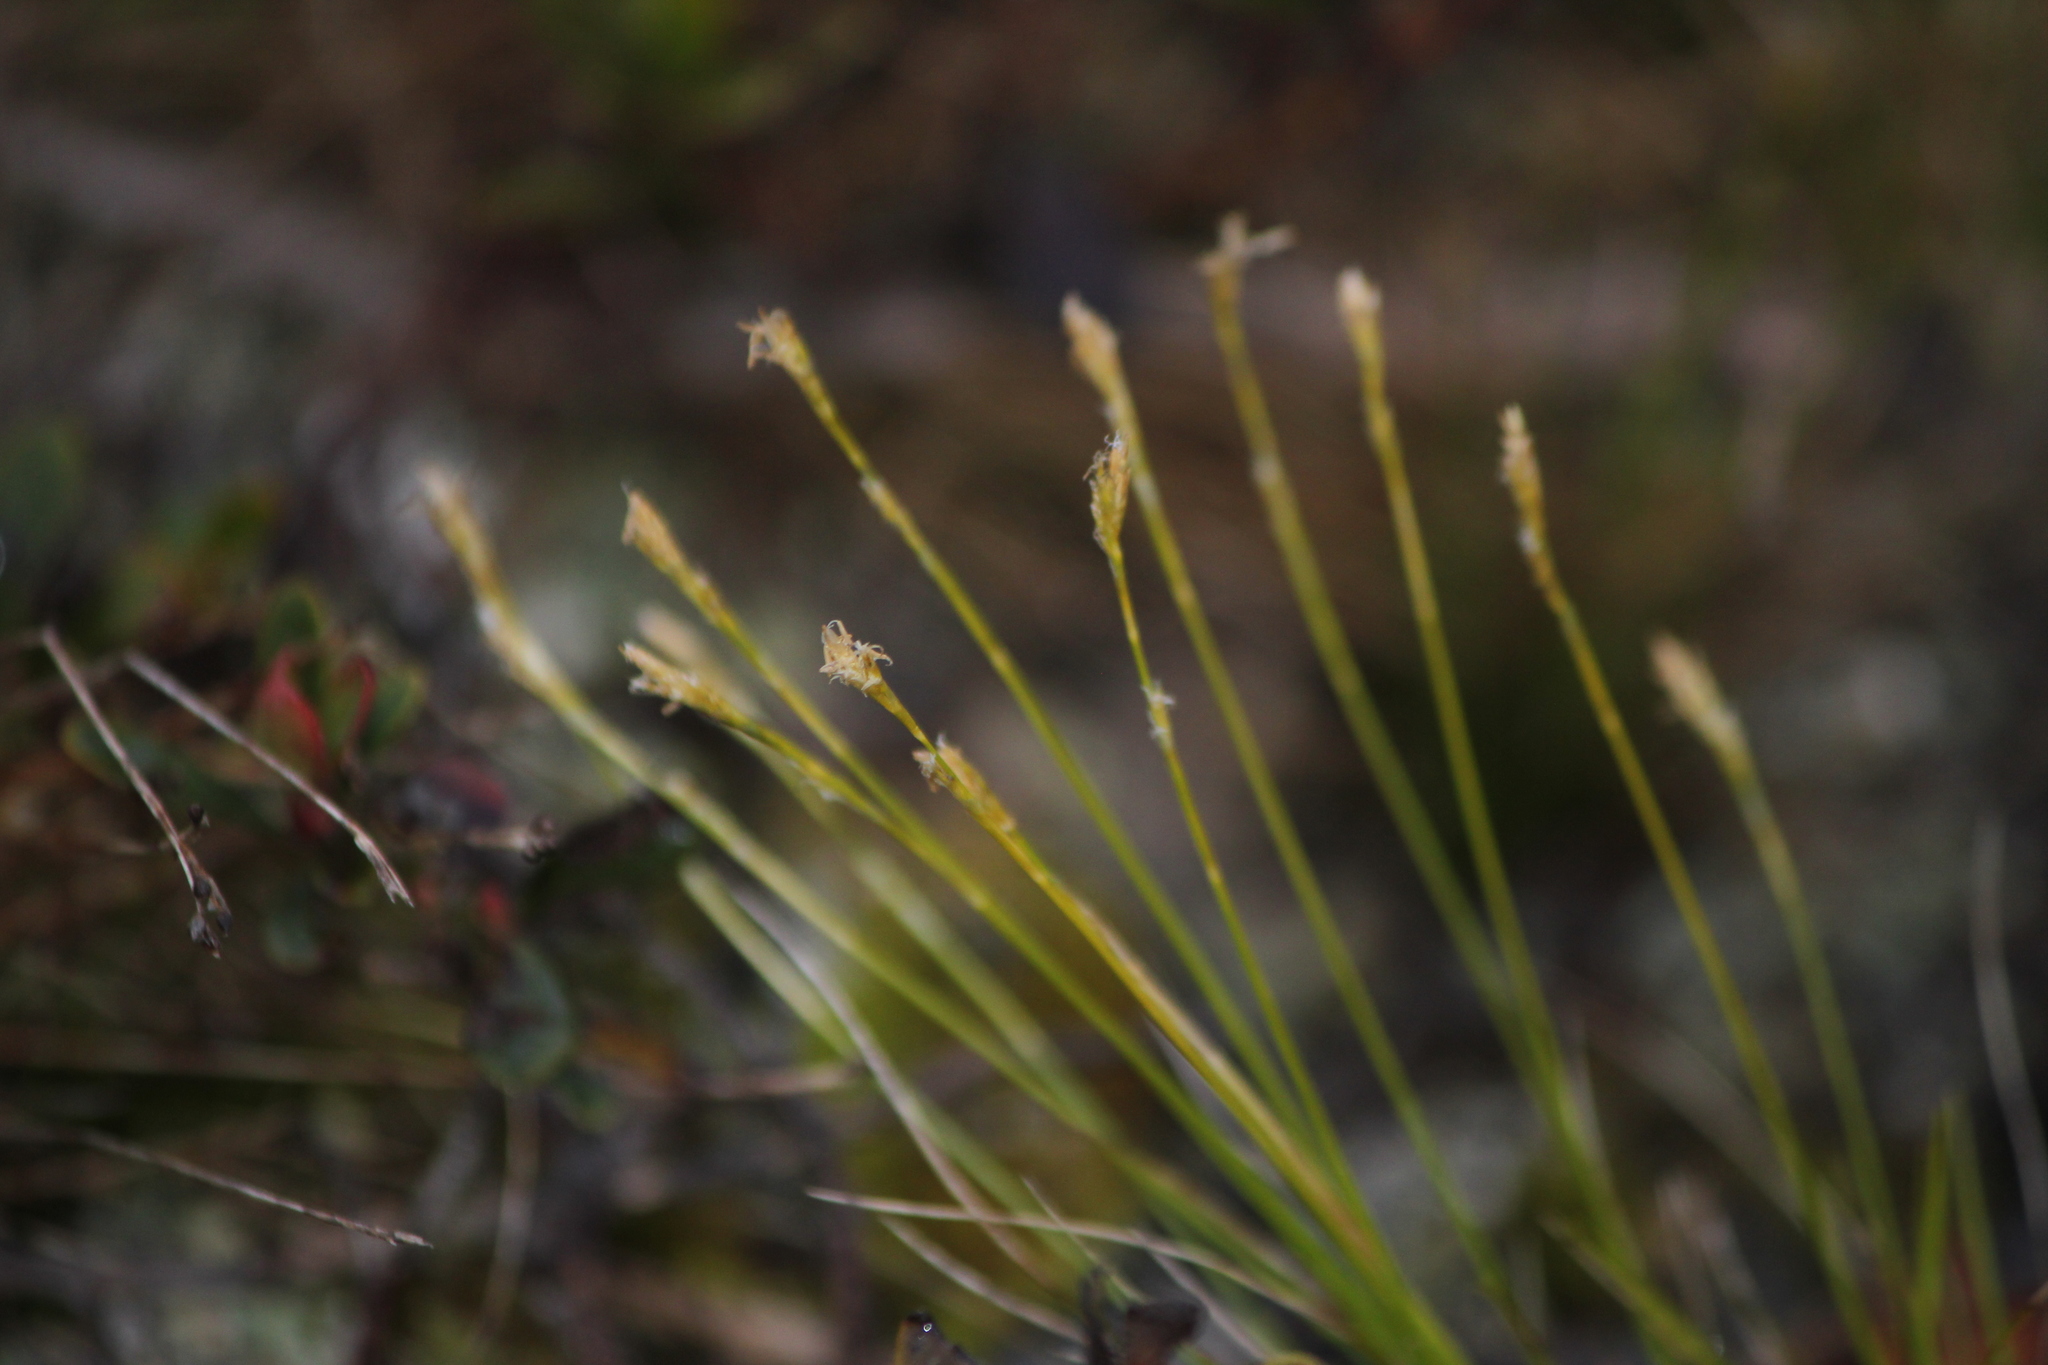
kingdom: Plantae
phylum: Tracheophyta
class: Liliopsida
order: Poales
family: Cyperaceae
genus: Carex
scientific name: Carex eburnea
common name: Bristle-leaved sedge
